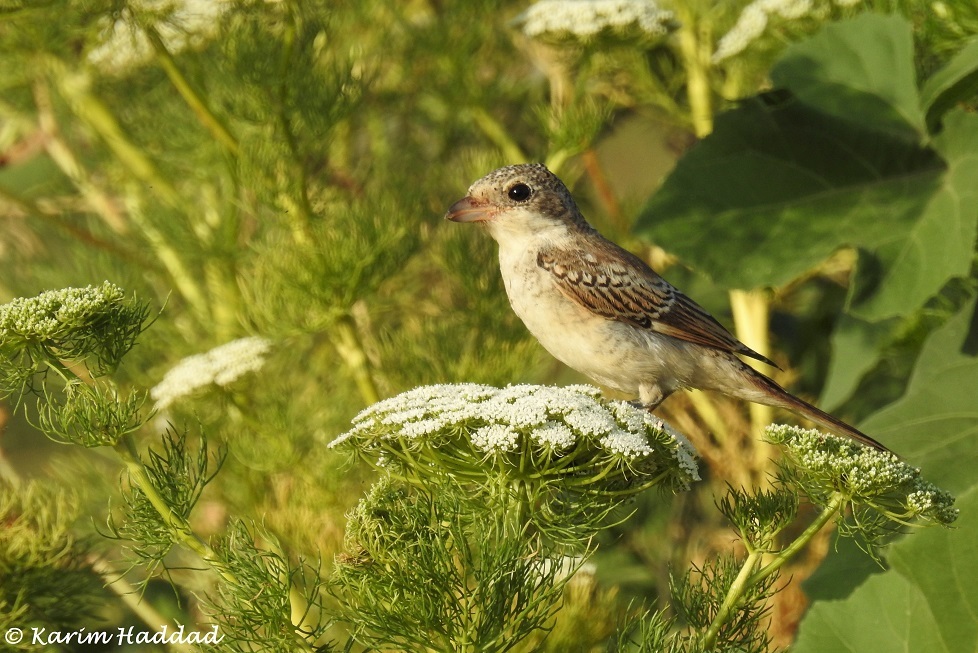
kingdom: Animalia
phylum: Chordata
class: Aves
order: Passeriformes
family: Laniidae
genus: Lanius
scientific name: Lanius senator
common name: Woodchat shrike
